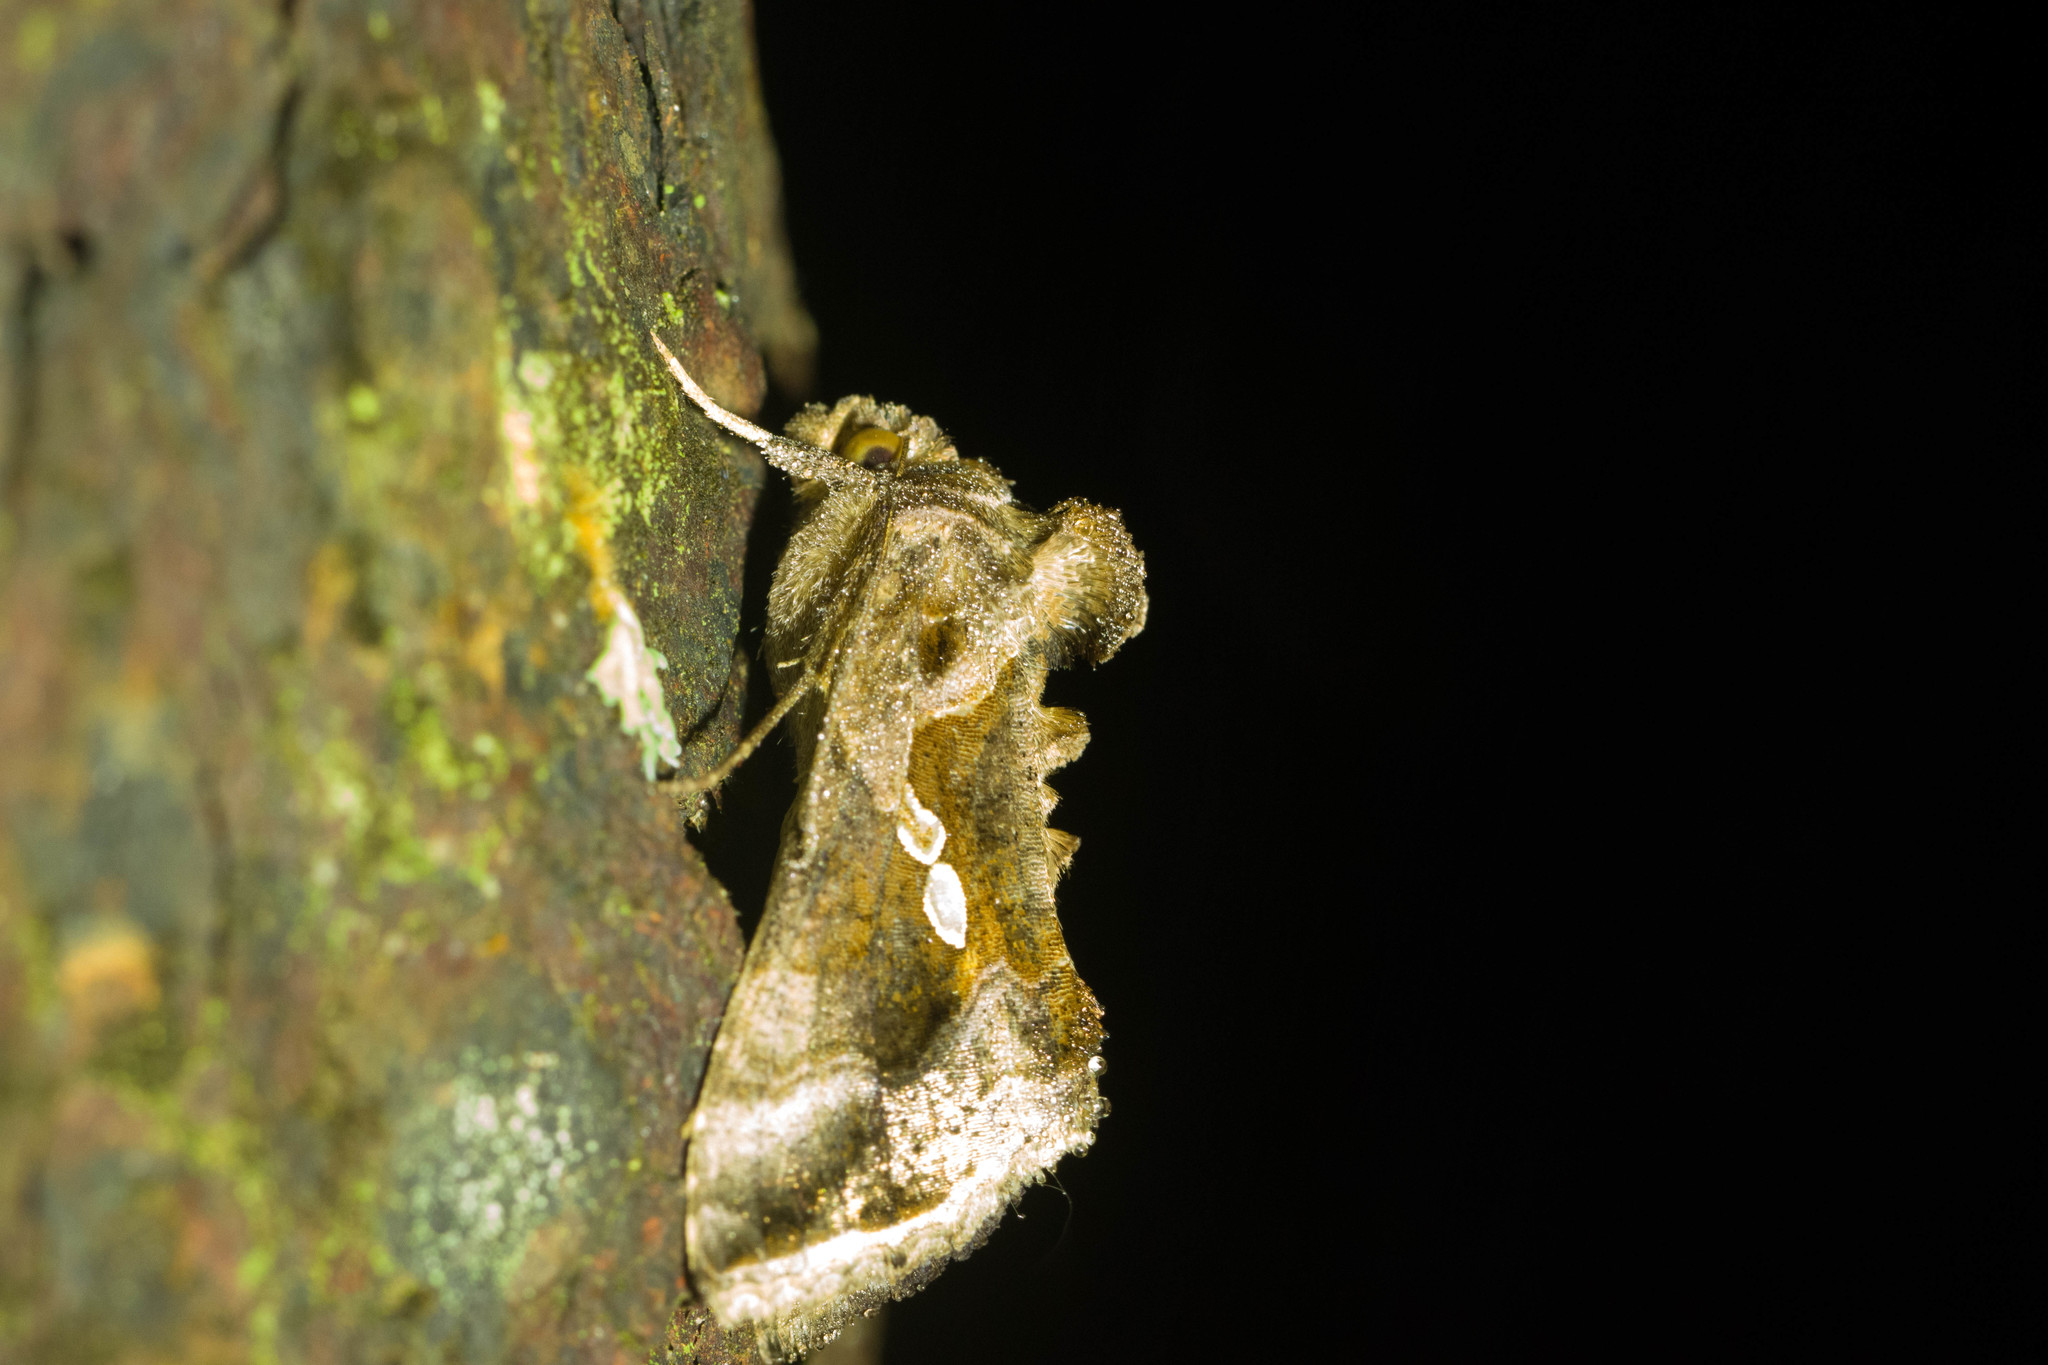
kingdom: Animalia
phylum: Arthropoda
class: Insecta
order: Lepidoptera
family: Noctuidae
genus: Chrysodeixis
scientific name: Chrysodeixis eriosoma
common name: Green garden looper
